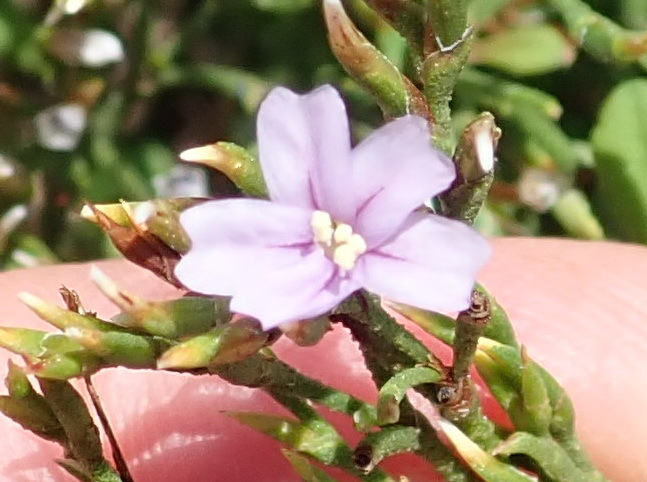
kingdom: Plantae
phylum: Tracheophyta
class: Magnoliopsida
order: Caryophyllales
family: Plumbaginaceae
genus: Limonium
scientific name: Limonium scabrum
